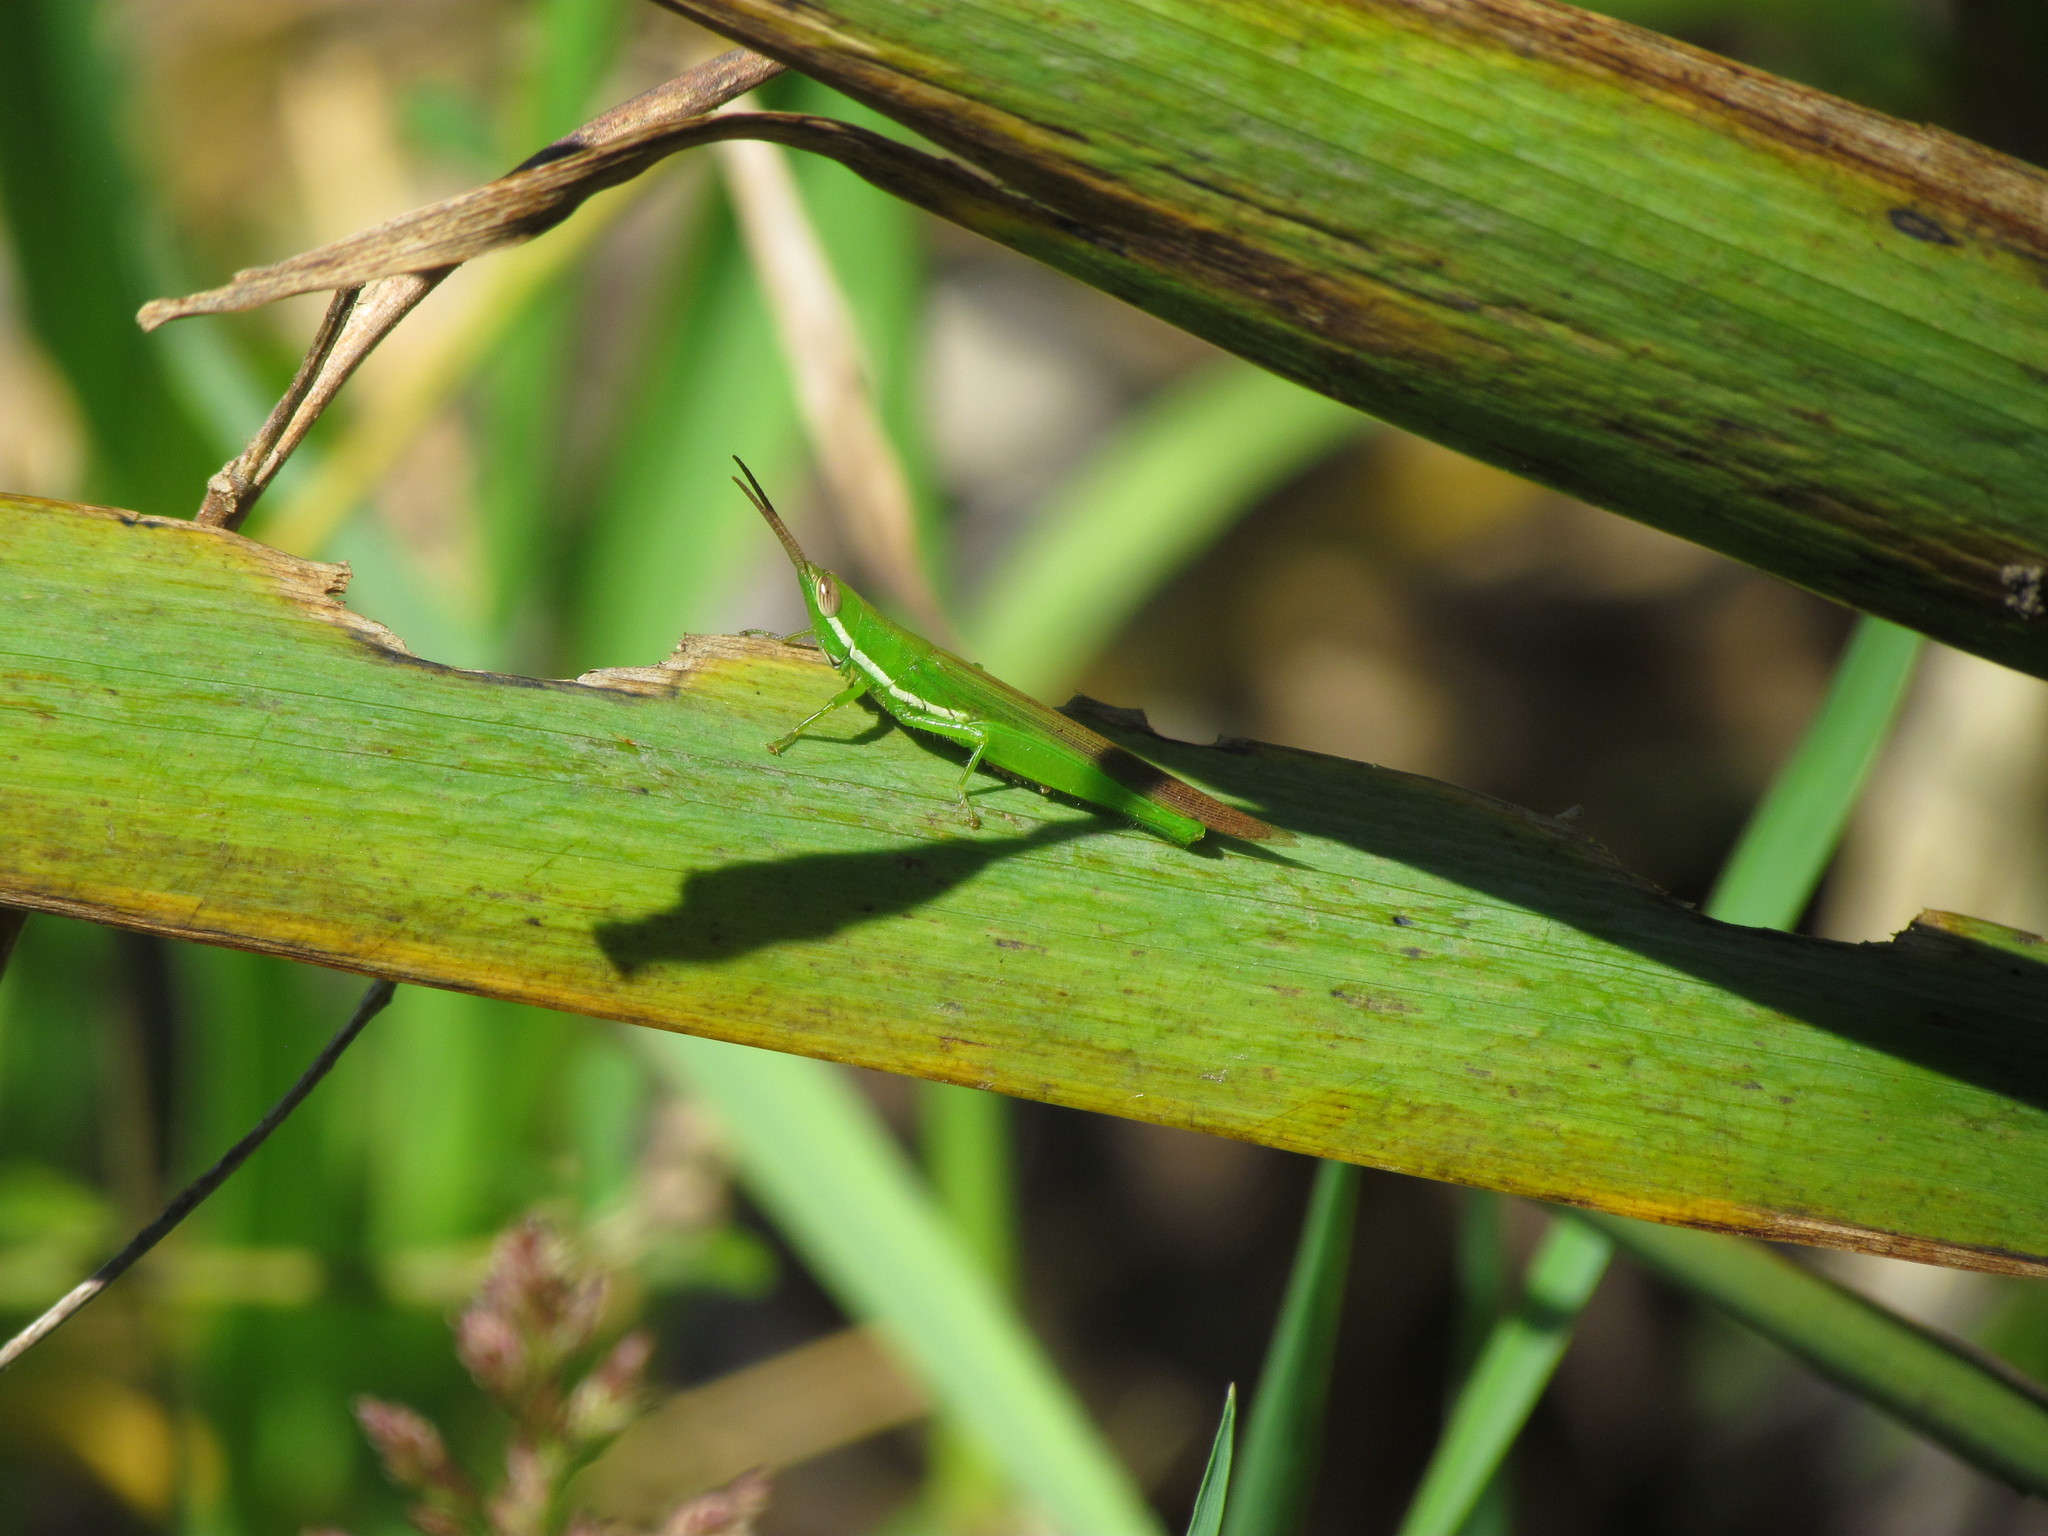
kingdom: Animalia
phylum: Arthropoda
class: Insecta
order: Orthoptera
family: Acrididae
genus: Tucayaca
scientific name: Tucayaca gracilis
